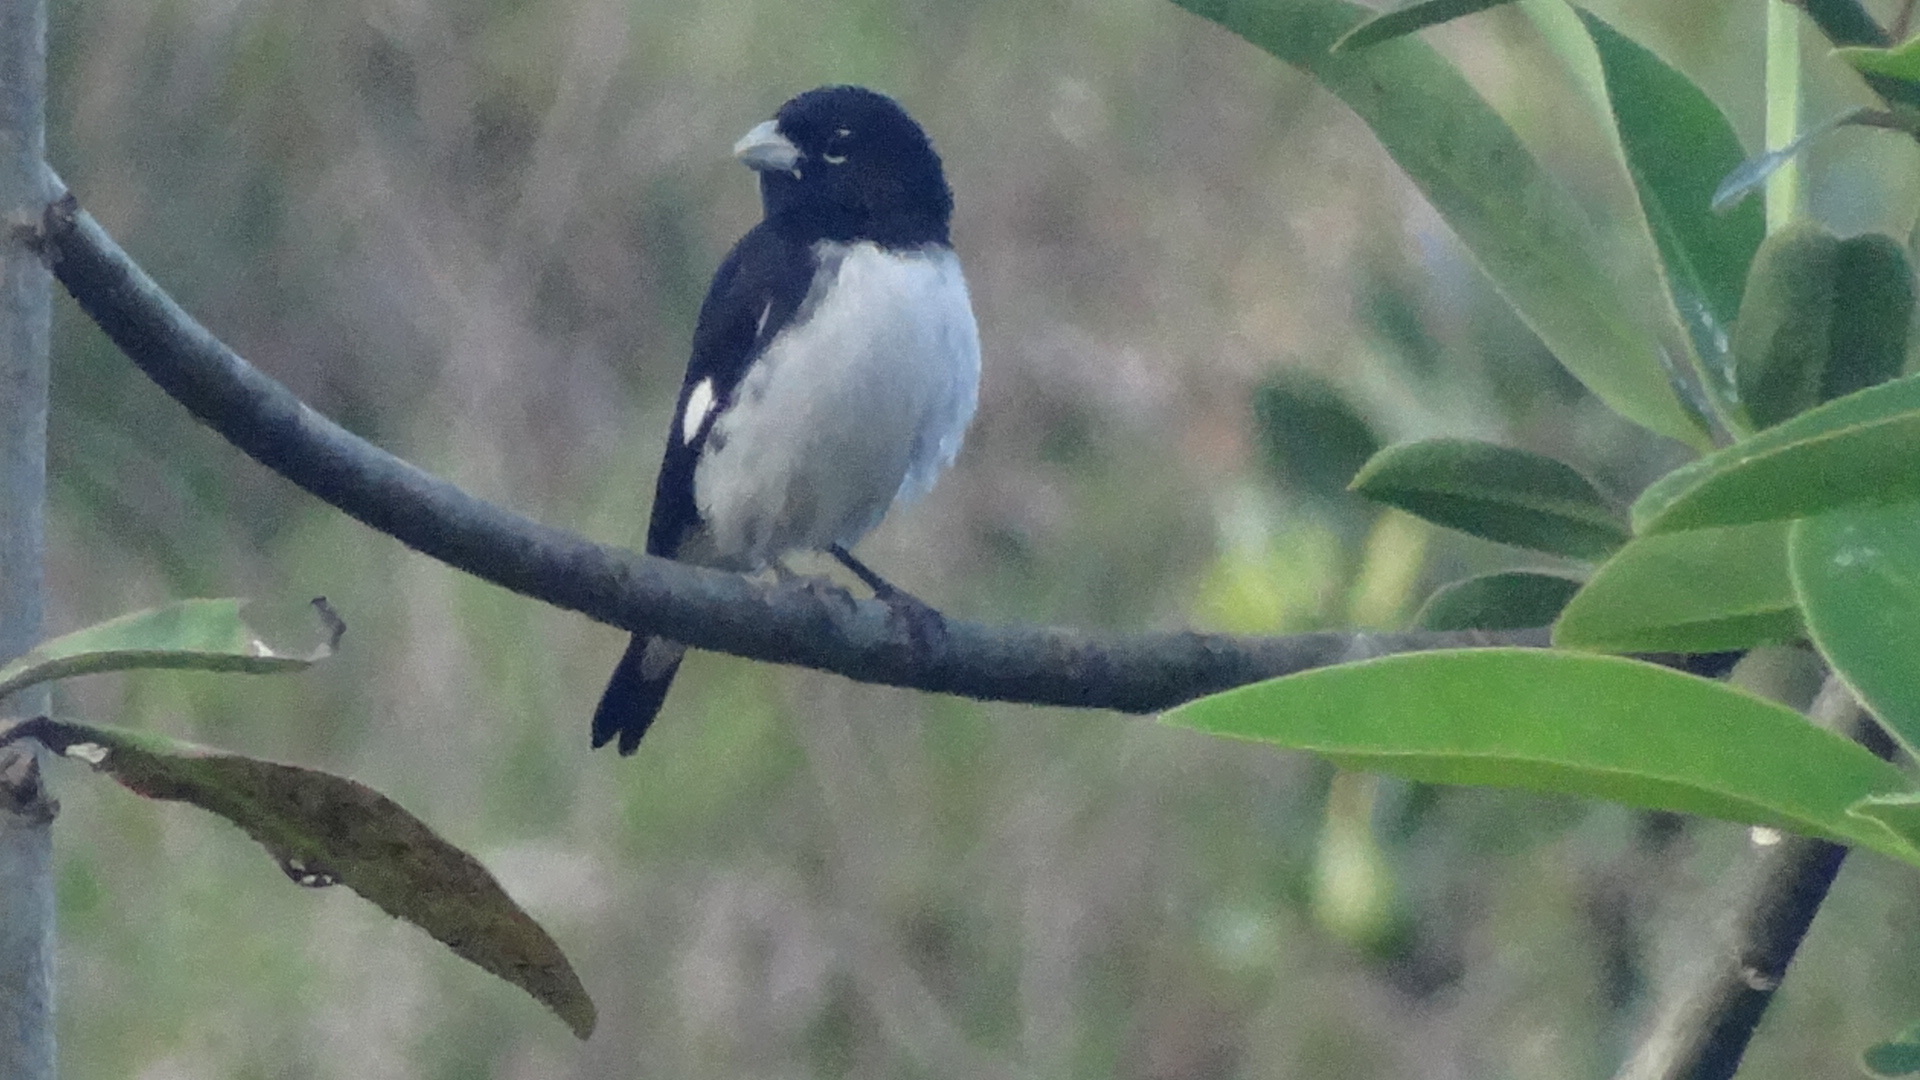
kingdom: Animalia
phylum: Chordata
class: Aves
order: Passeriformes
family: Thraupidae
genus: Sporophila
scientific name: Sporophila luctuosa
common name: Black-and-white seedeater
